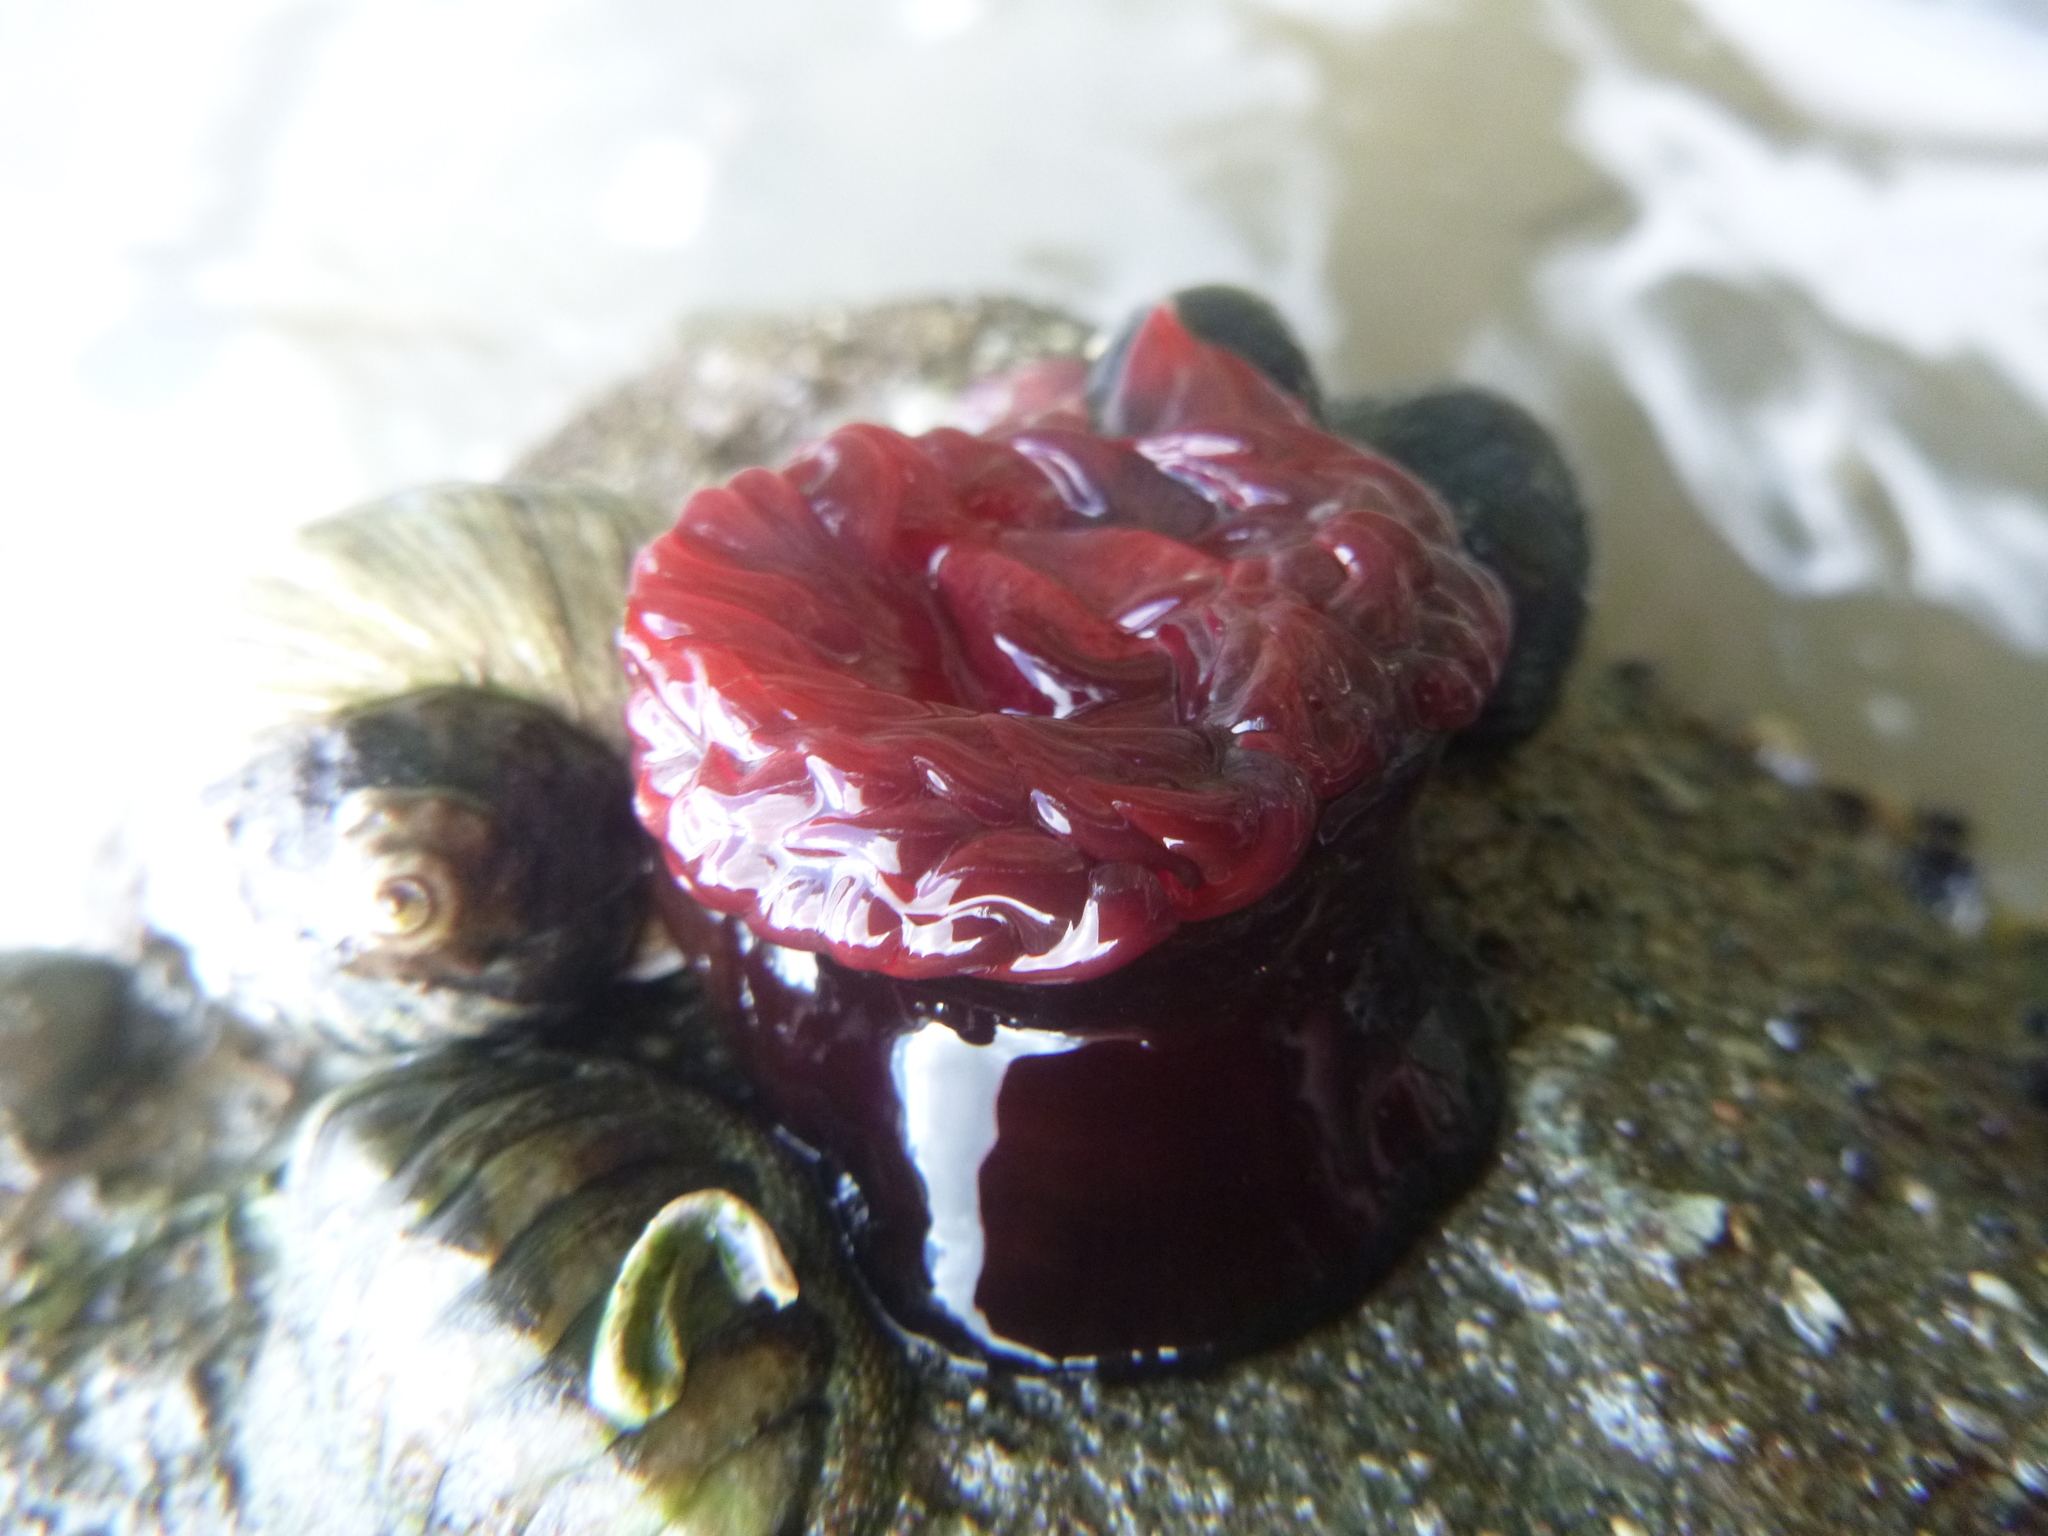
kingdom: Animalia
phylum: Cnidaria
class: Anthozoa
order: Actiniaria
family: Actiniidae
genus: Actinia
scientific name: Actinia tenebrosa
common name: Waratah anemone
